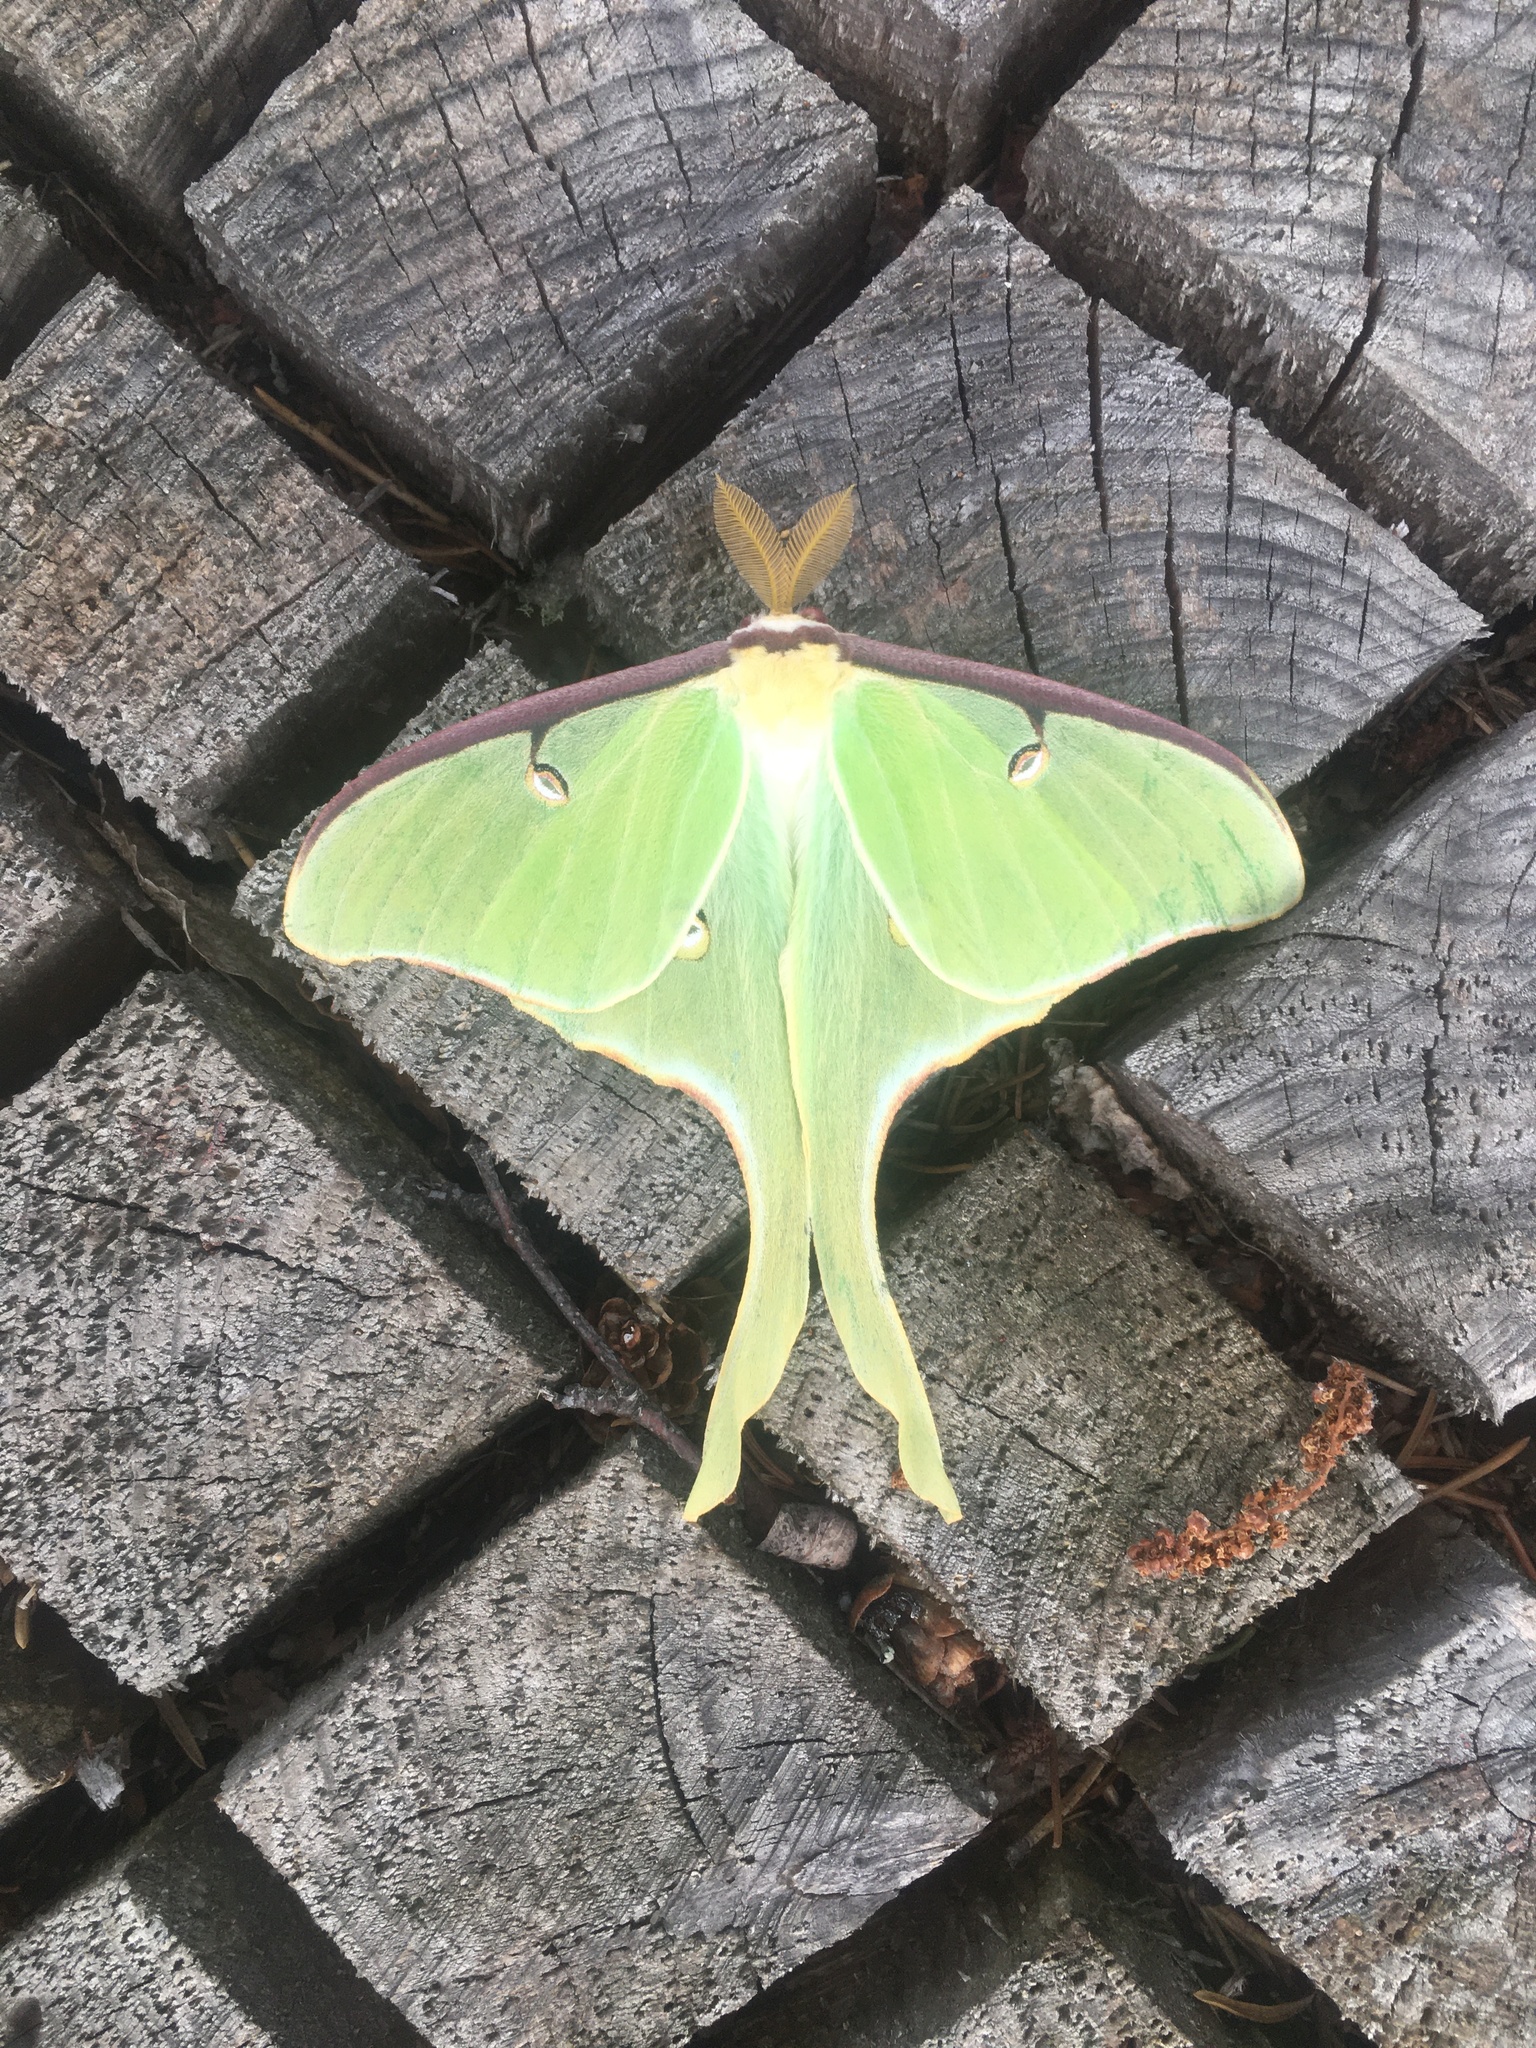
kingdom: Animalia
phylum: Arthropoda
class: Insecta
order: Lepidoptera
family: Saturniidae
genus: Actias
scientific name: Actias luna
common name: Luna moth
